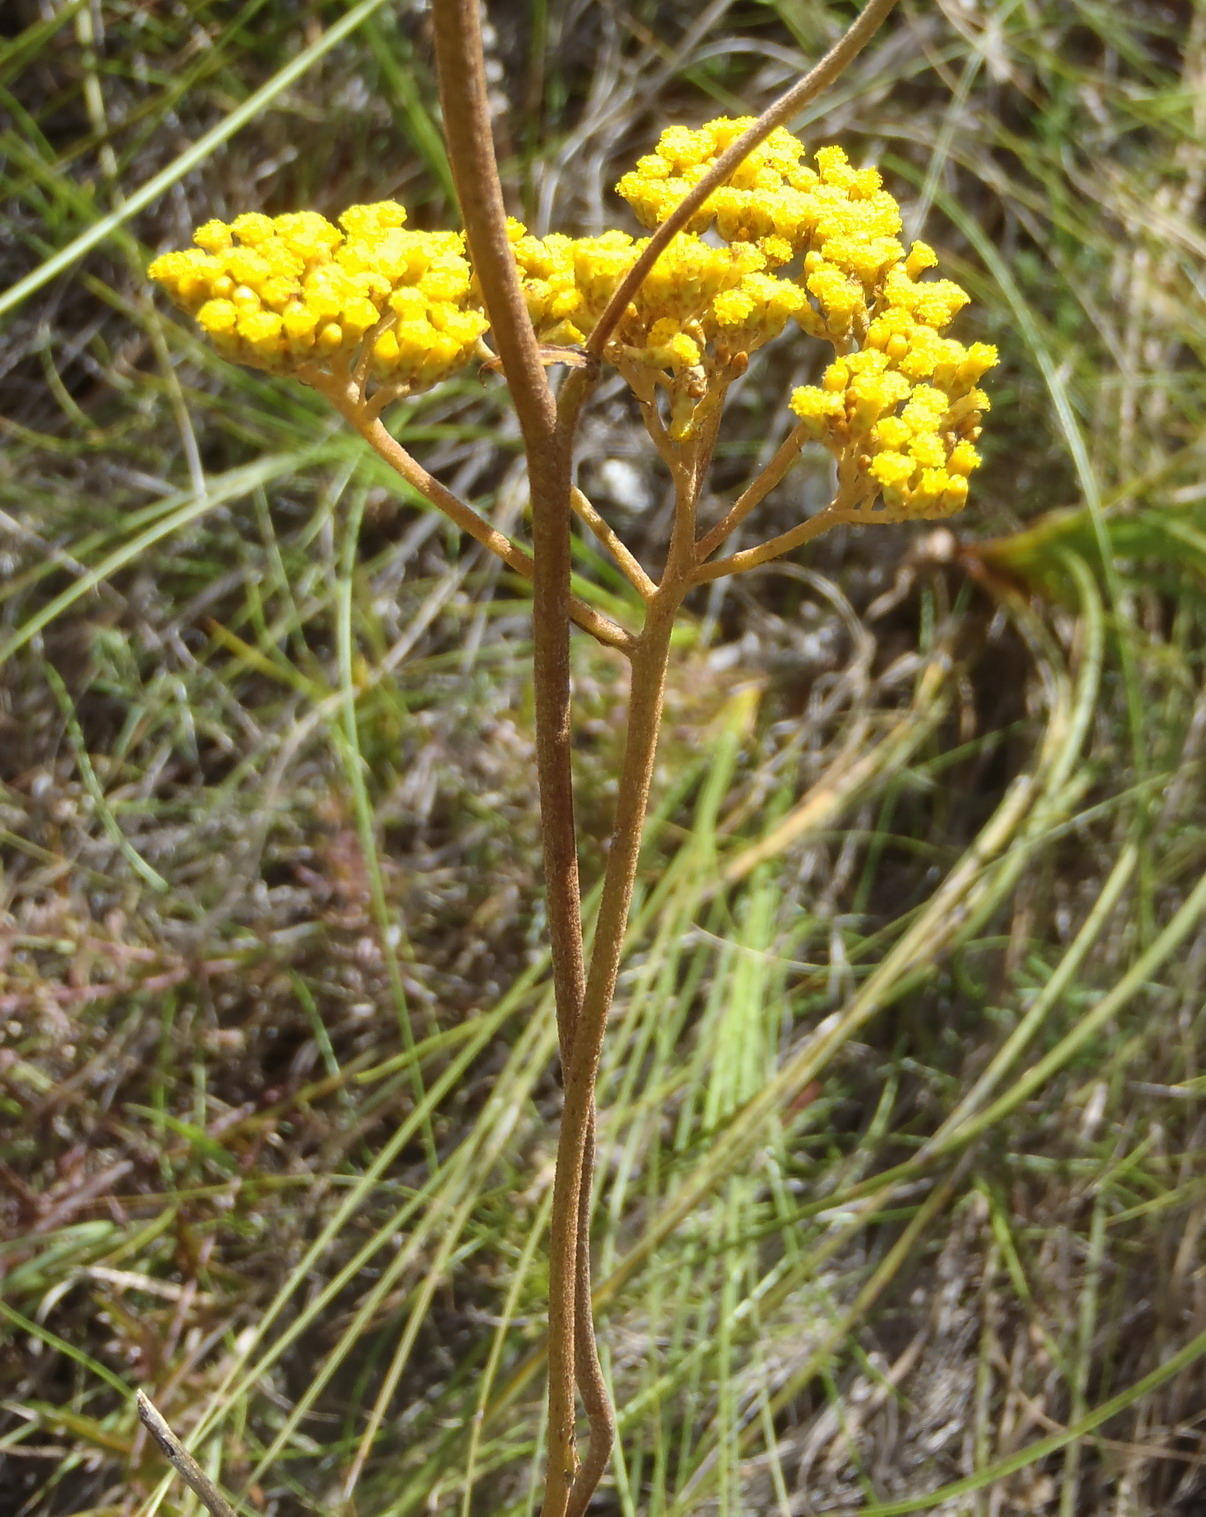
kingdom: Plantae
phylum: Tracheophyta
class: Magnoliopsida
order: Asterales
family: Asteraceae
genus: Helichrysum
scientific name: Helichrysum nudifolium
